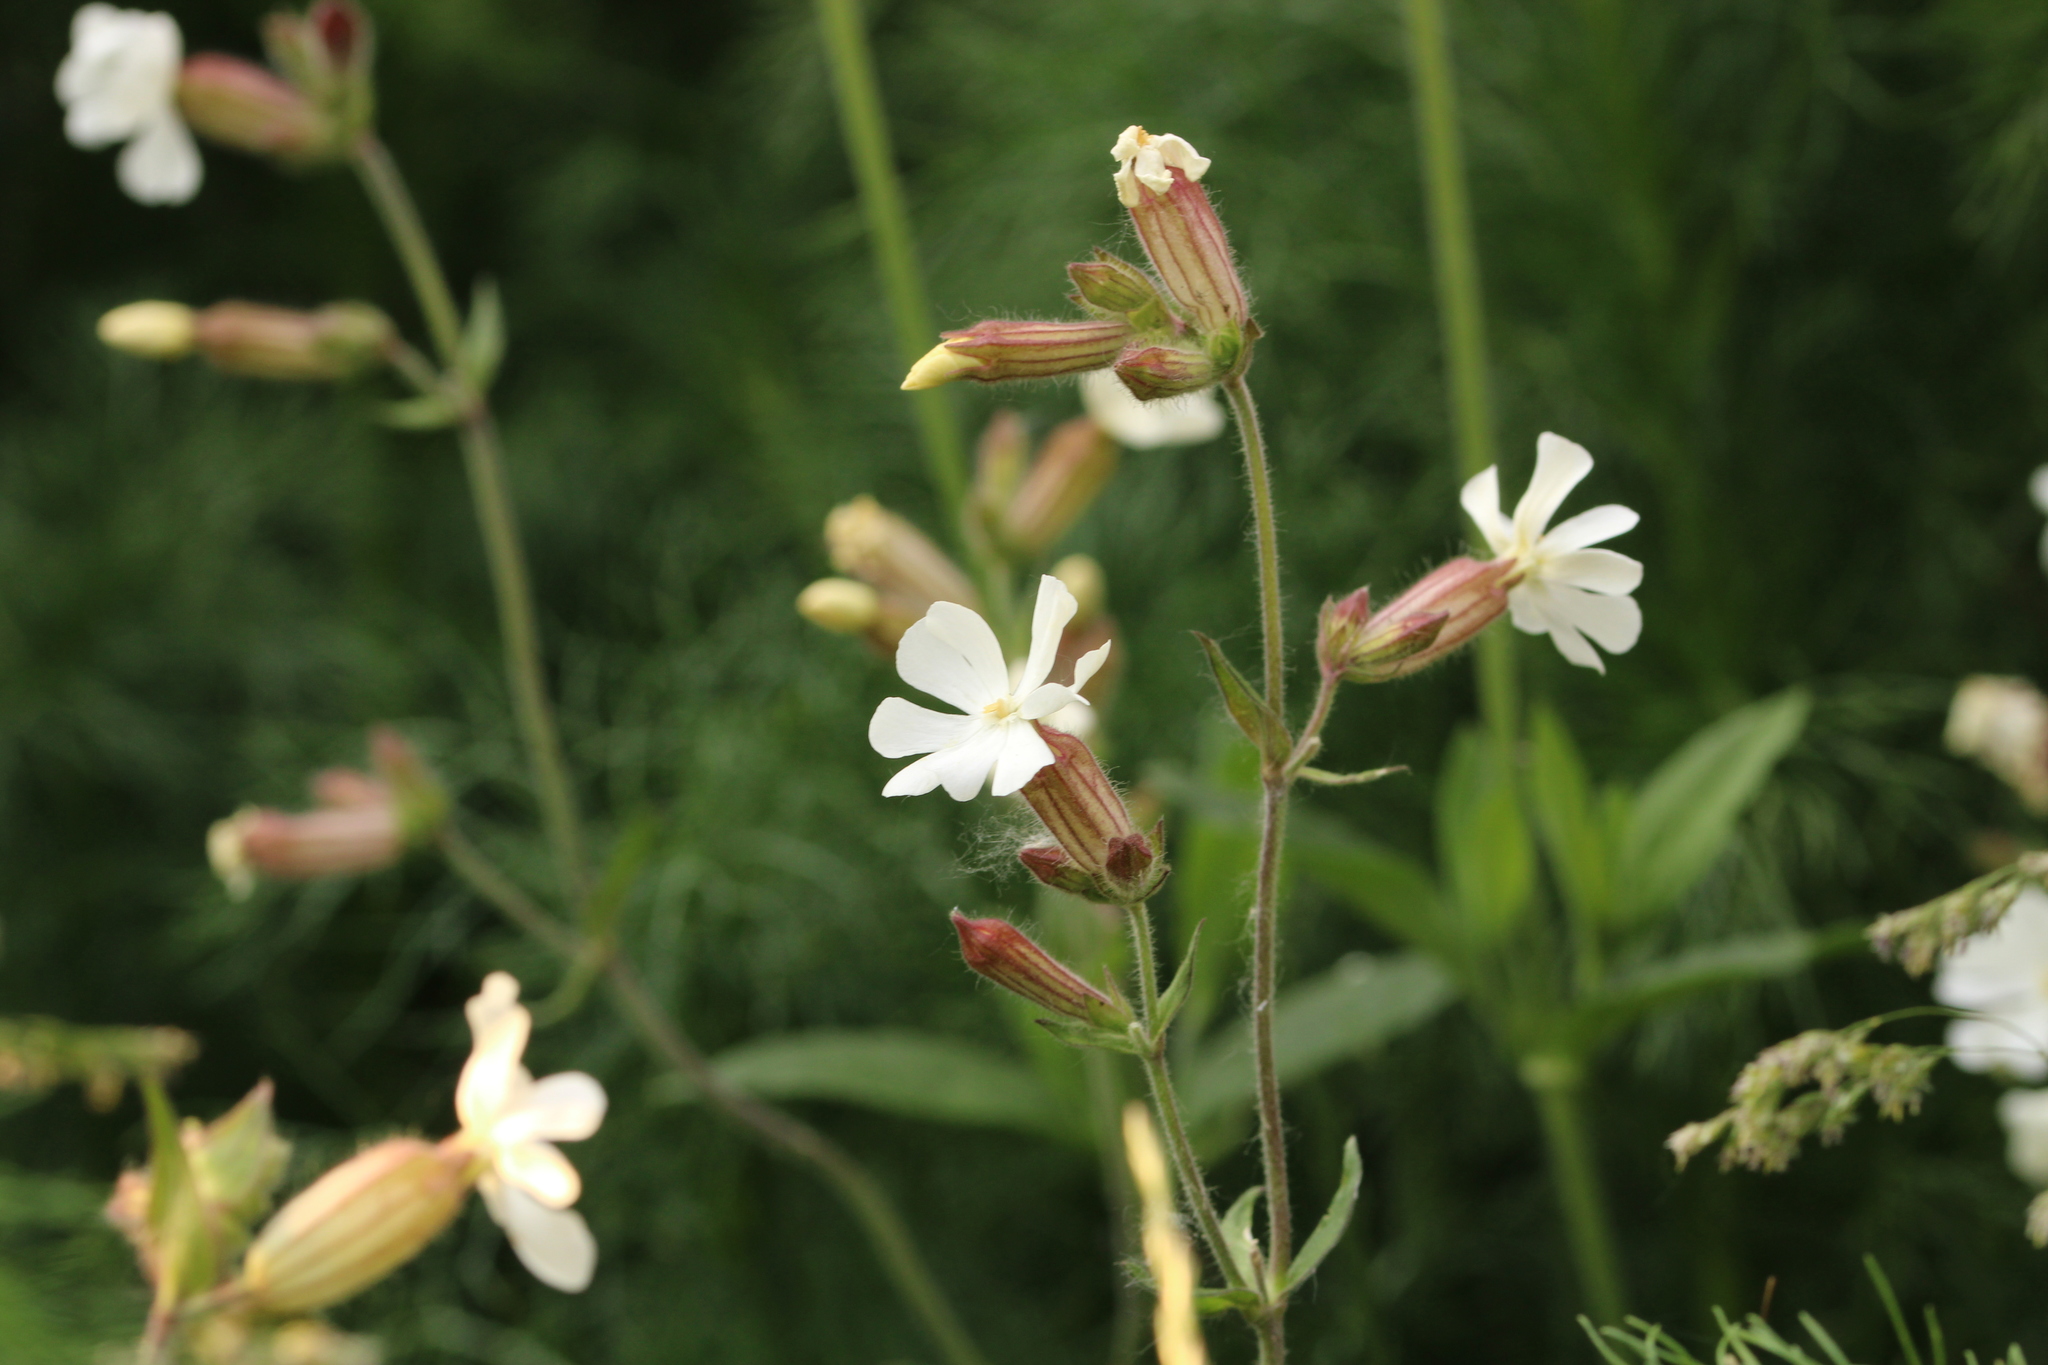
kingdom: Plantae
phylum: Tracheophyta
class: Magnoliopsida
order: Caryophyllales
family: Caryophyllaceae
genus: Silene
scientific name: Silene latifolia
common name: White campion
